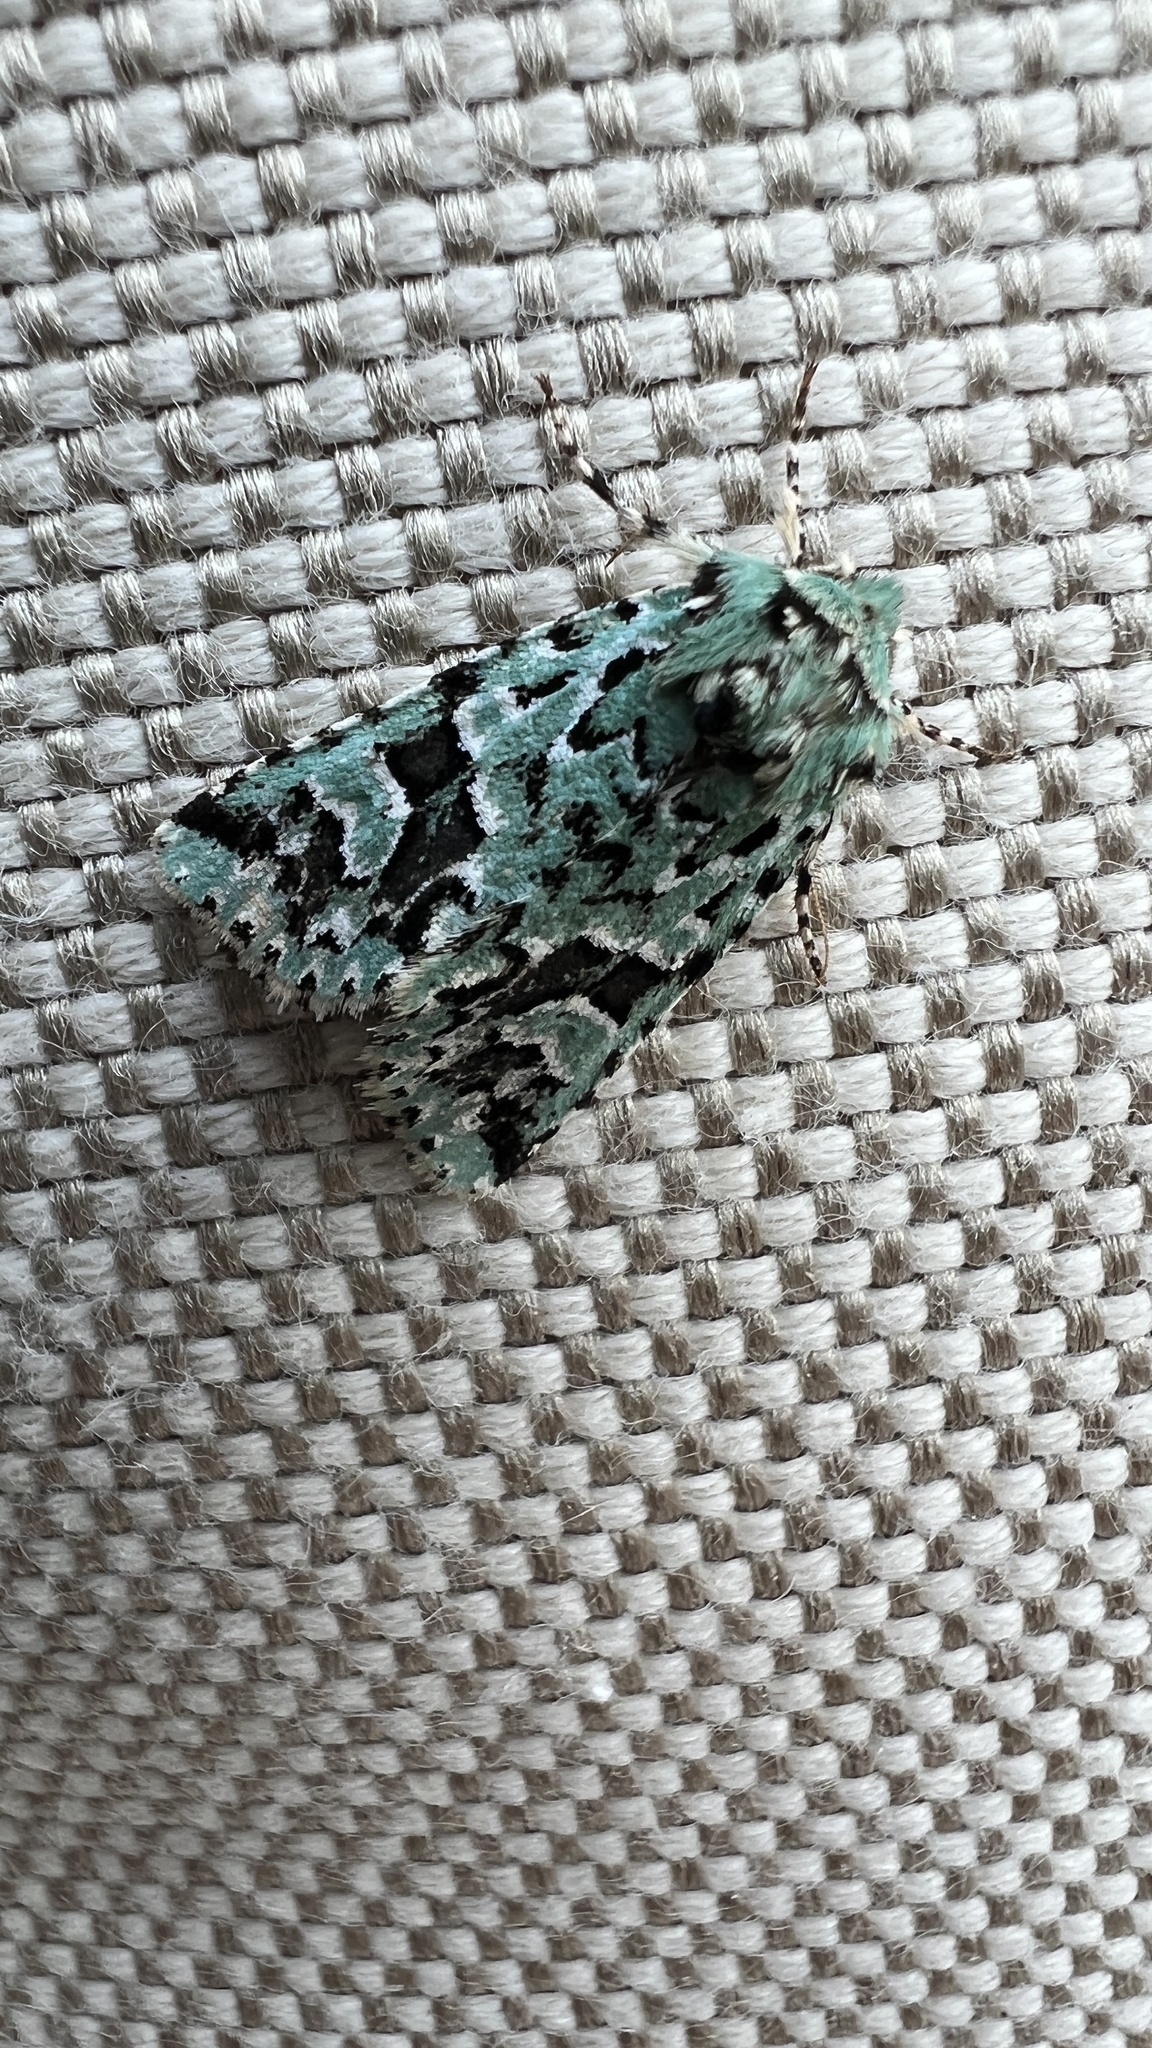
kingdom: Animalia
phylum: Arthropoda
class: Insecta
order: Lepidoptera
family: Noctuidae
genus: Feralia
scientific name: Feralia comstocki
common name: Comstock's sallow
